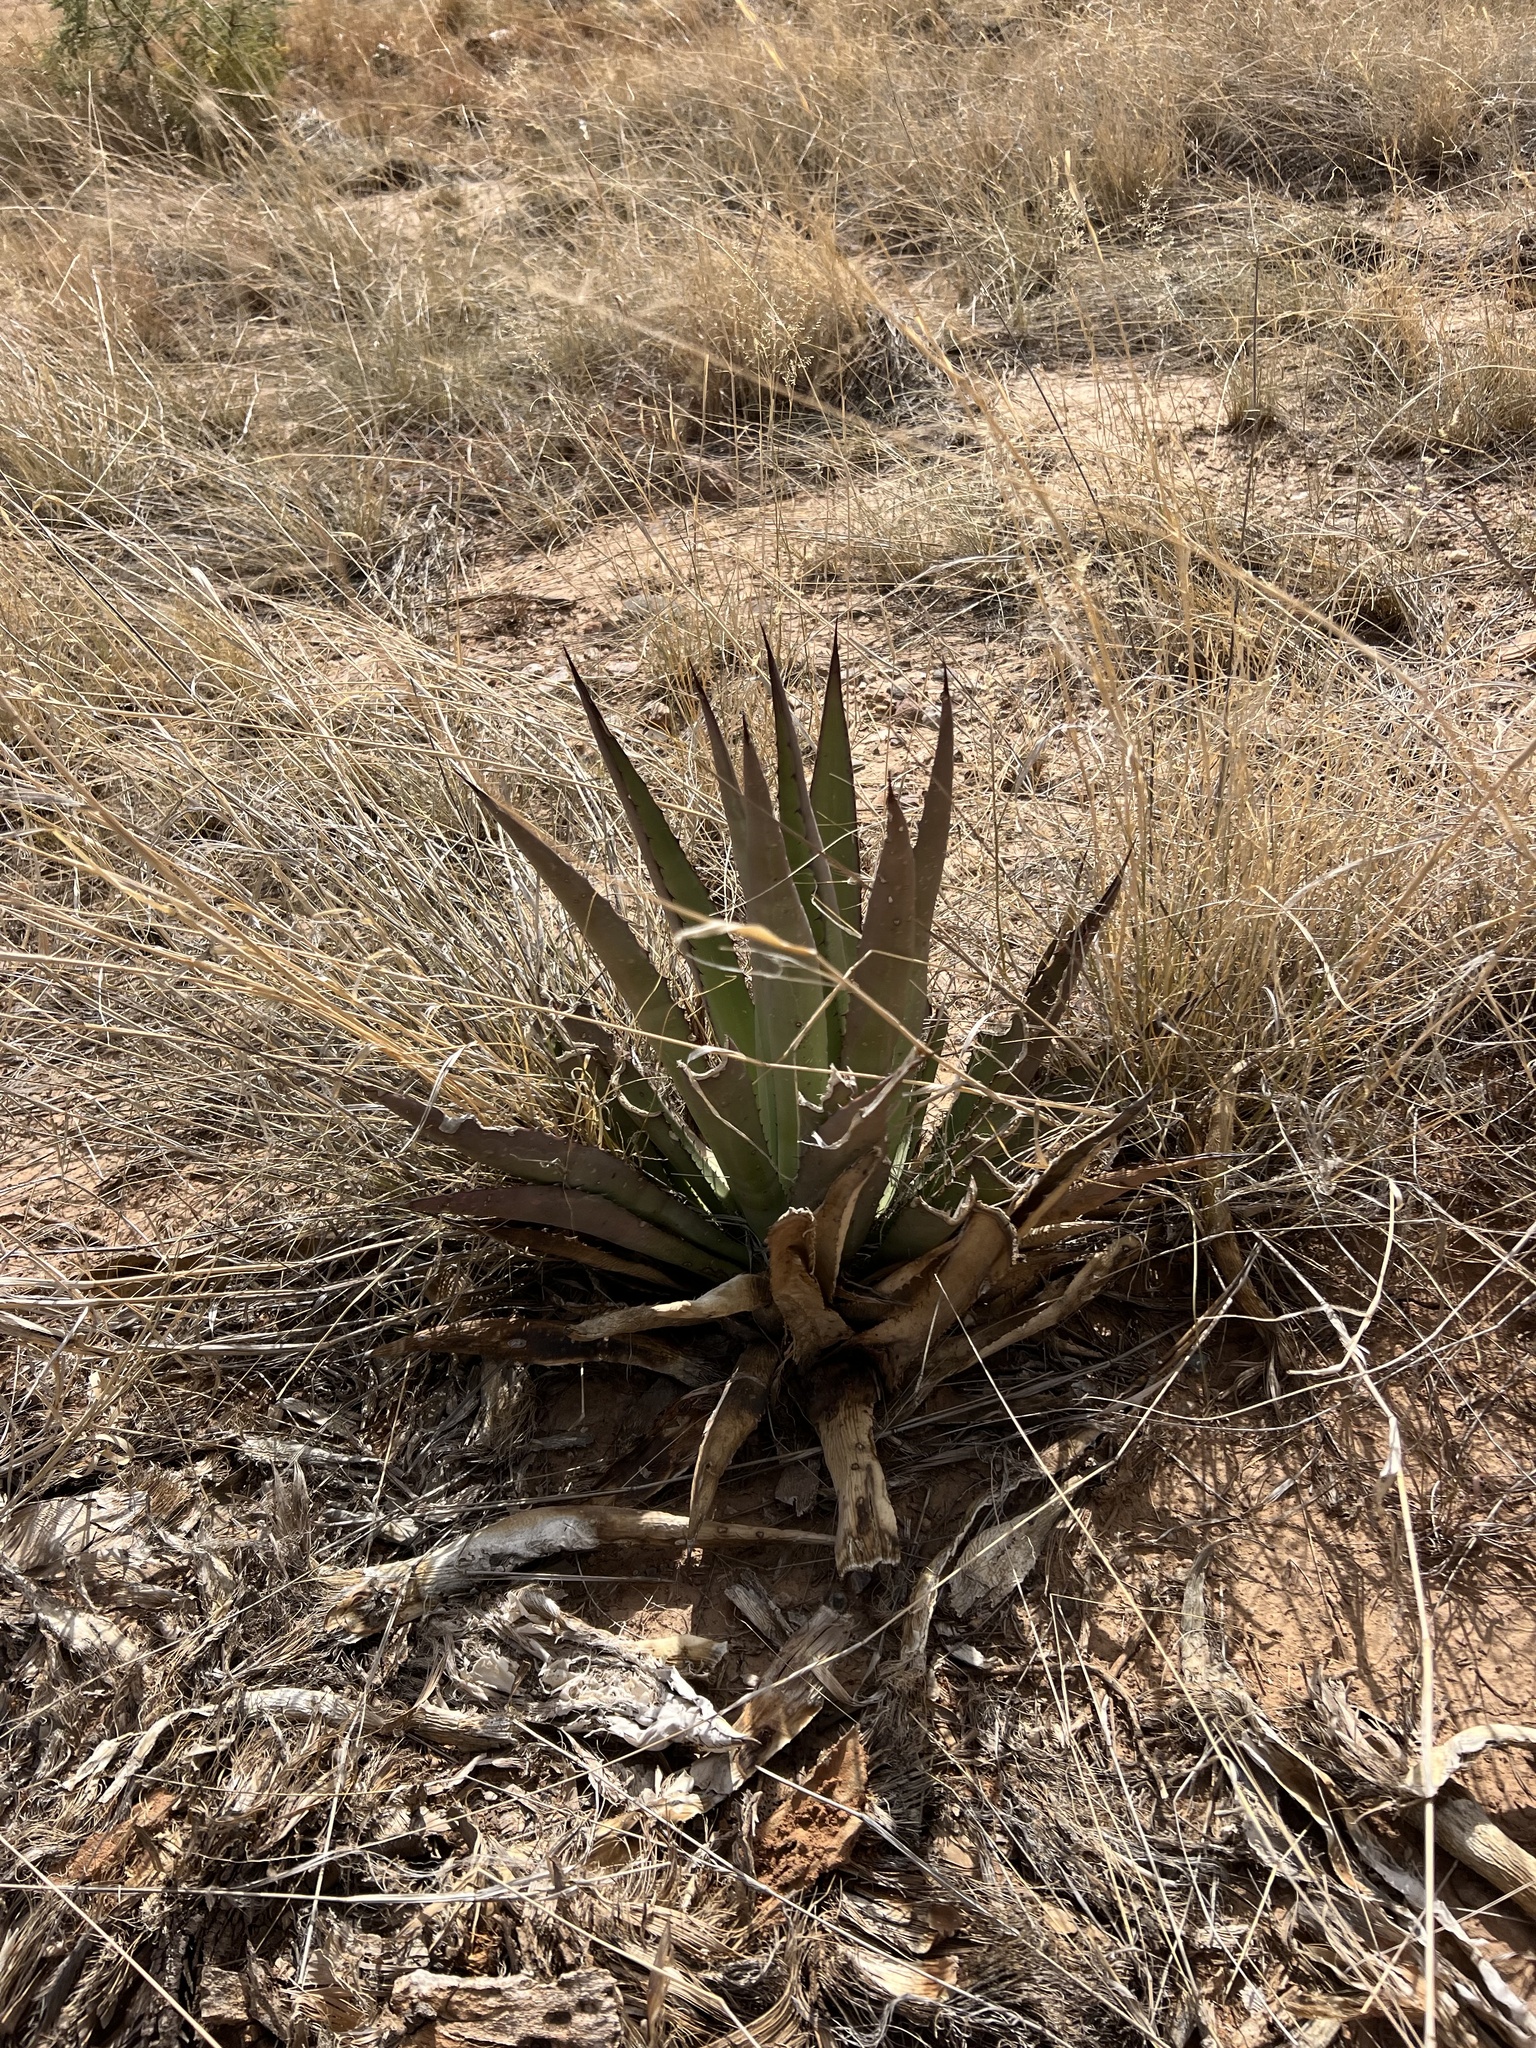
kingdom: Plantae
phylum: Tracheophyta
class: Liliopsida
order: Asparagales
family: Asparagaceae
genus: Agave
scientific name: Agave palmeri
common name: Palmer agave
